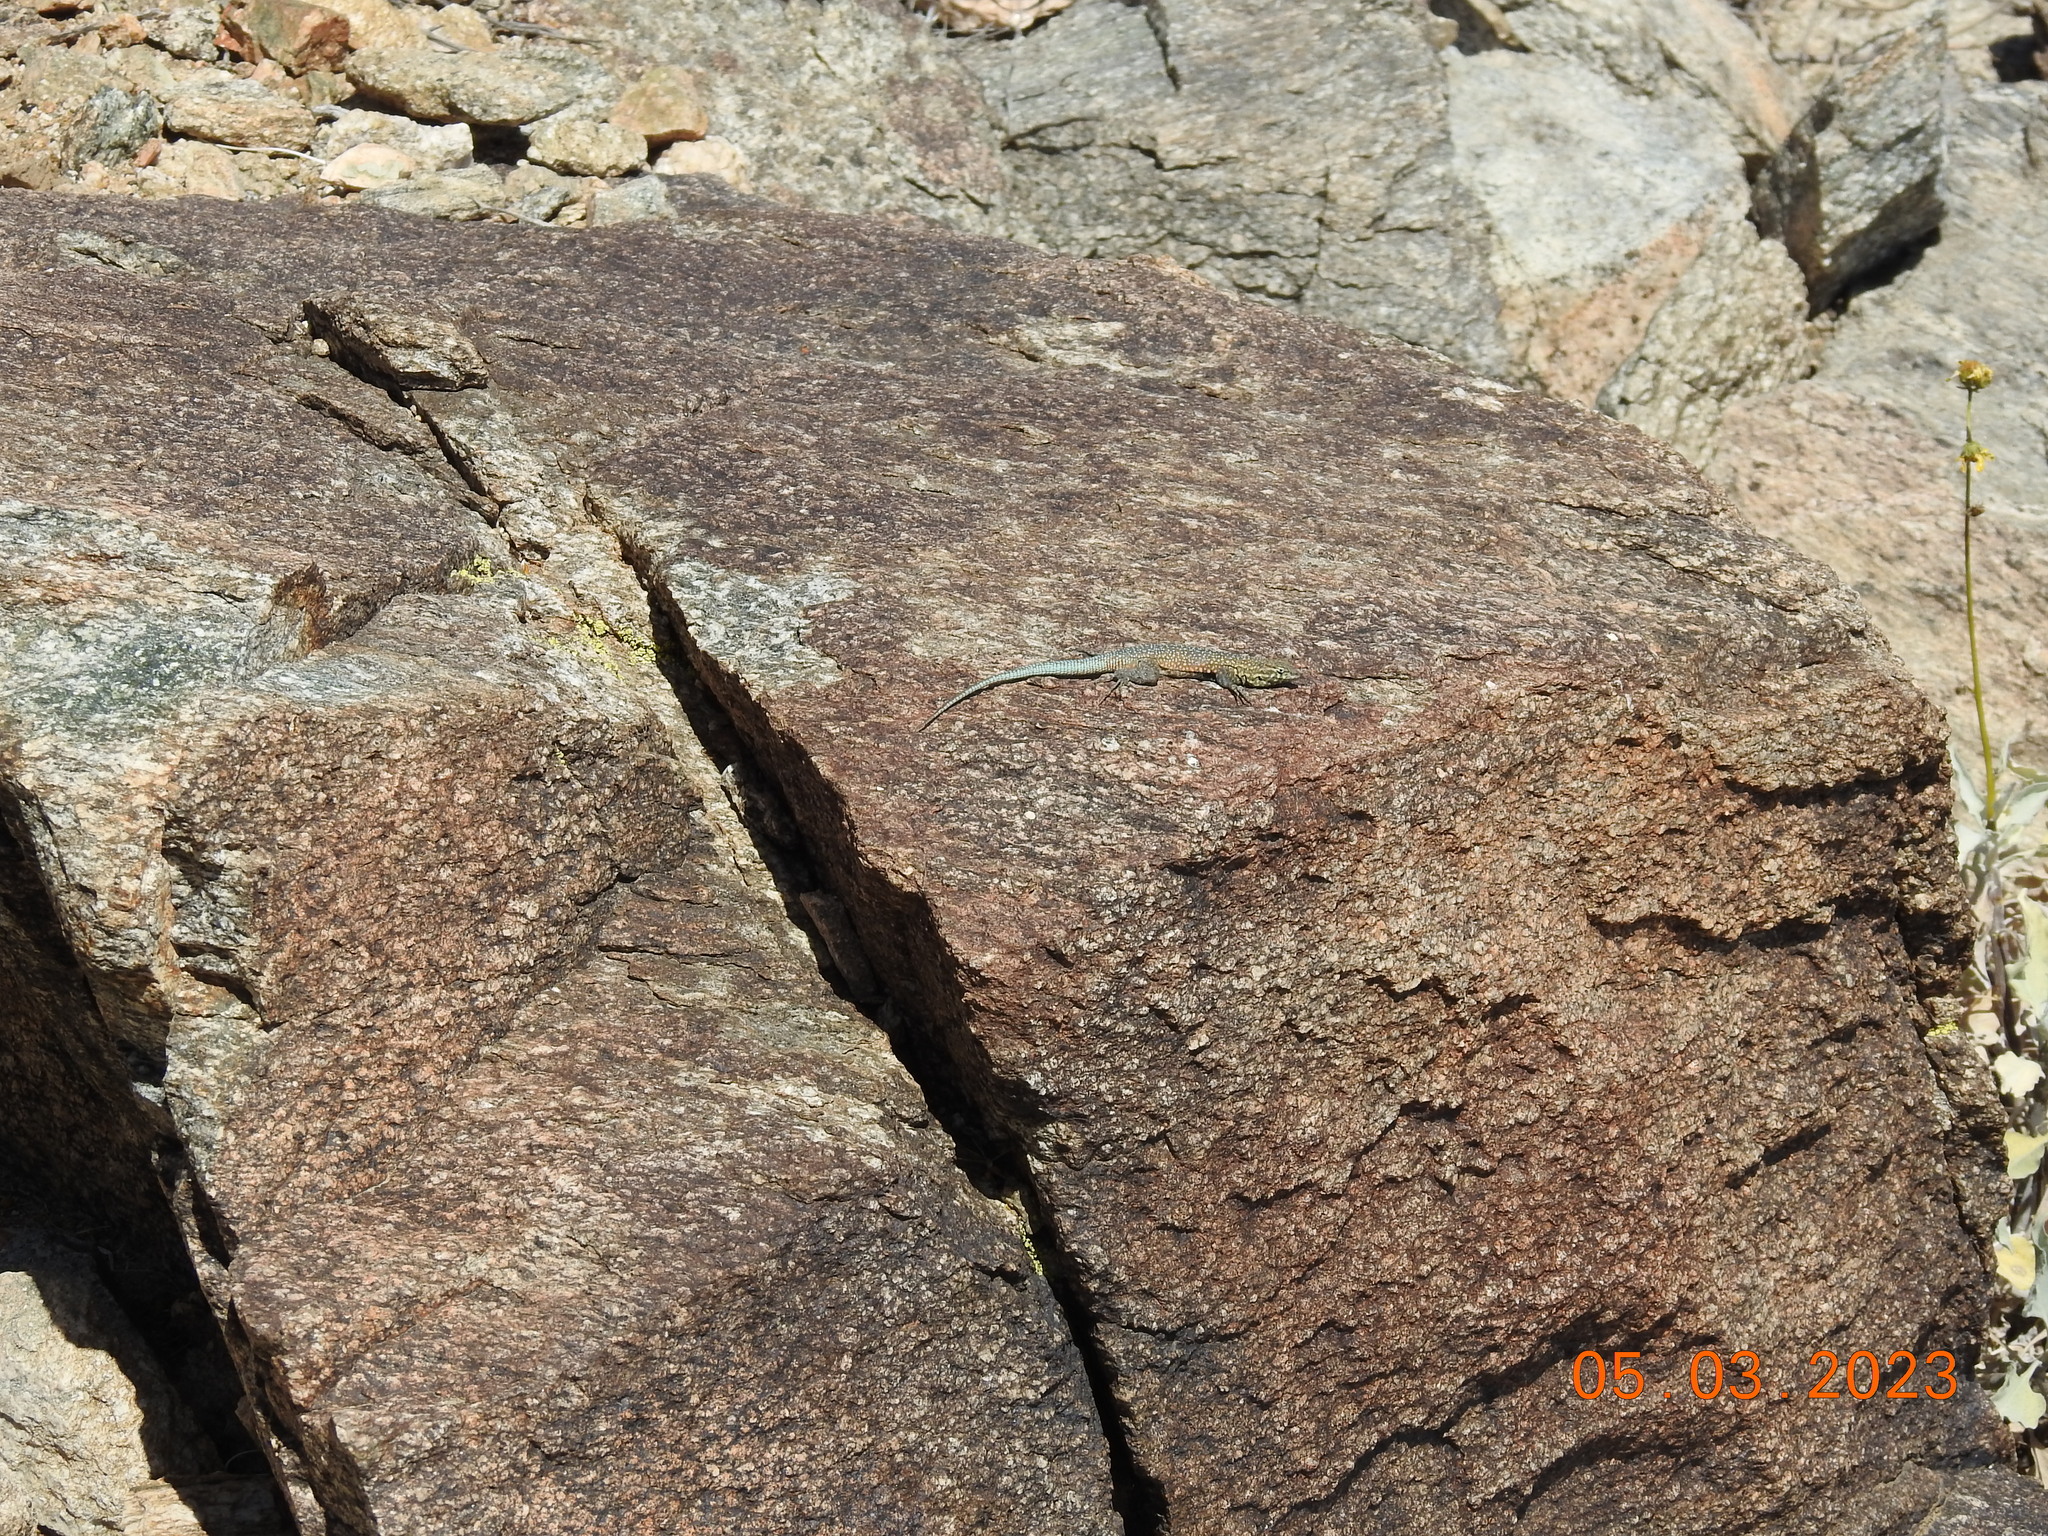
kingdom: Animalia
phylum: Chordata
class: Squamata
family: Phrynosomatidae
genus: Uta
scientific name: Uta stansburiana
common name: Side-blotched lizard
